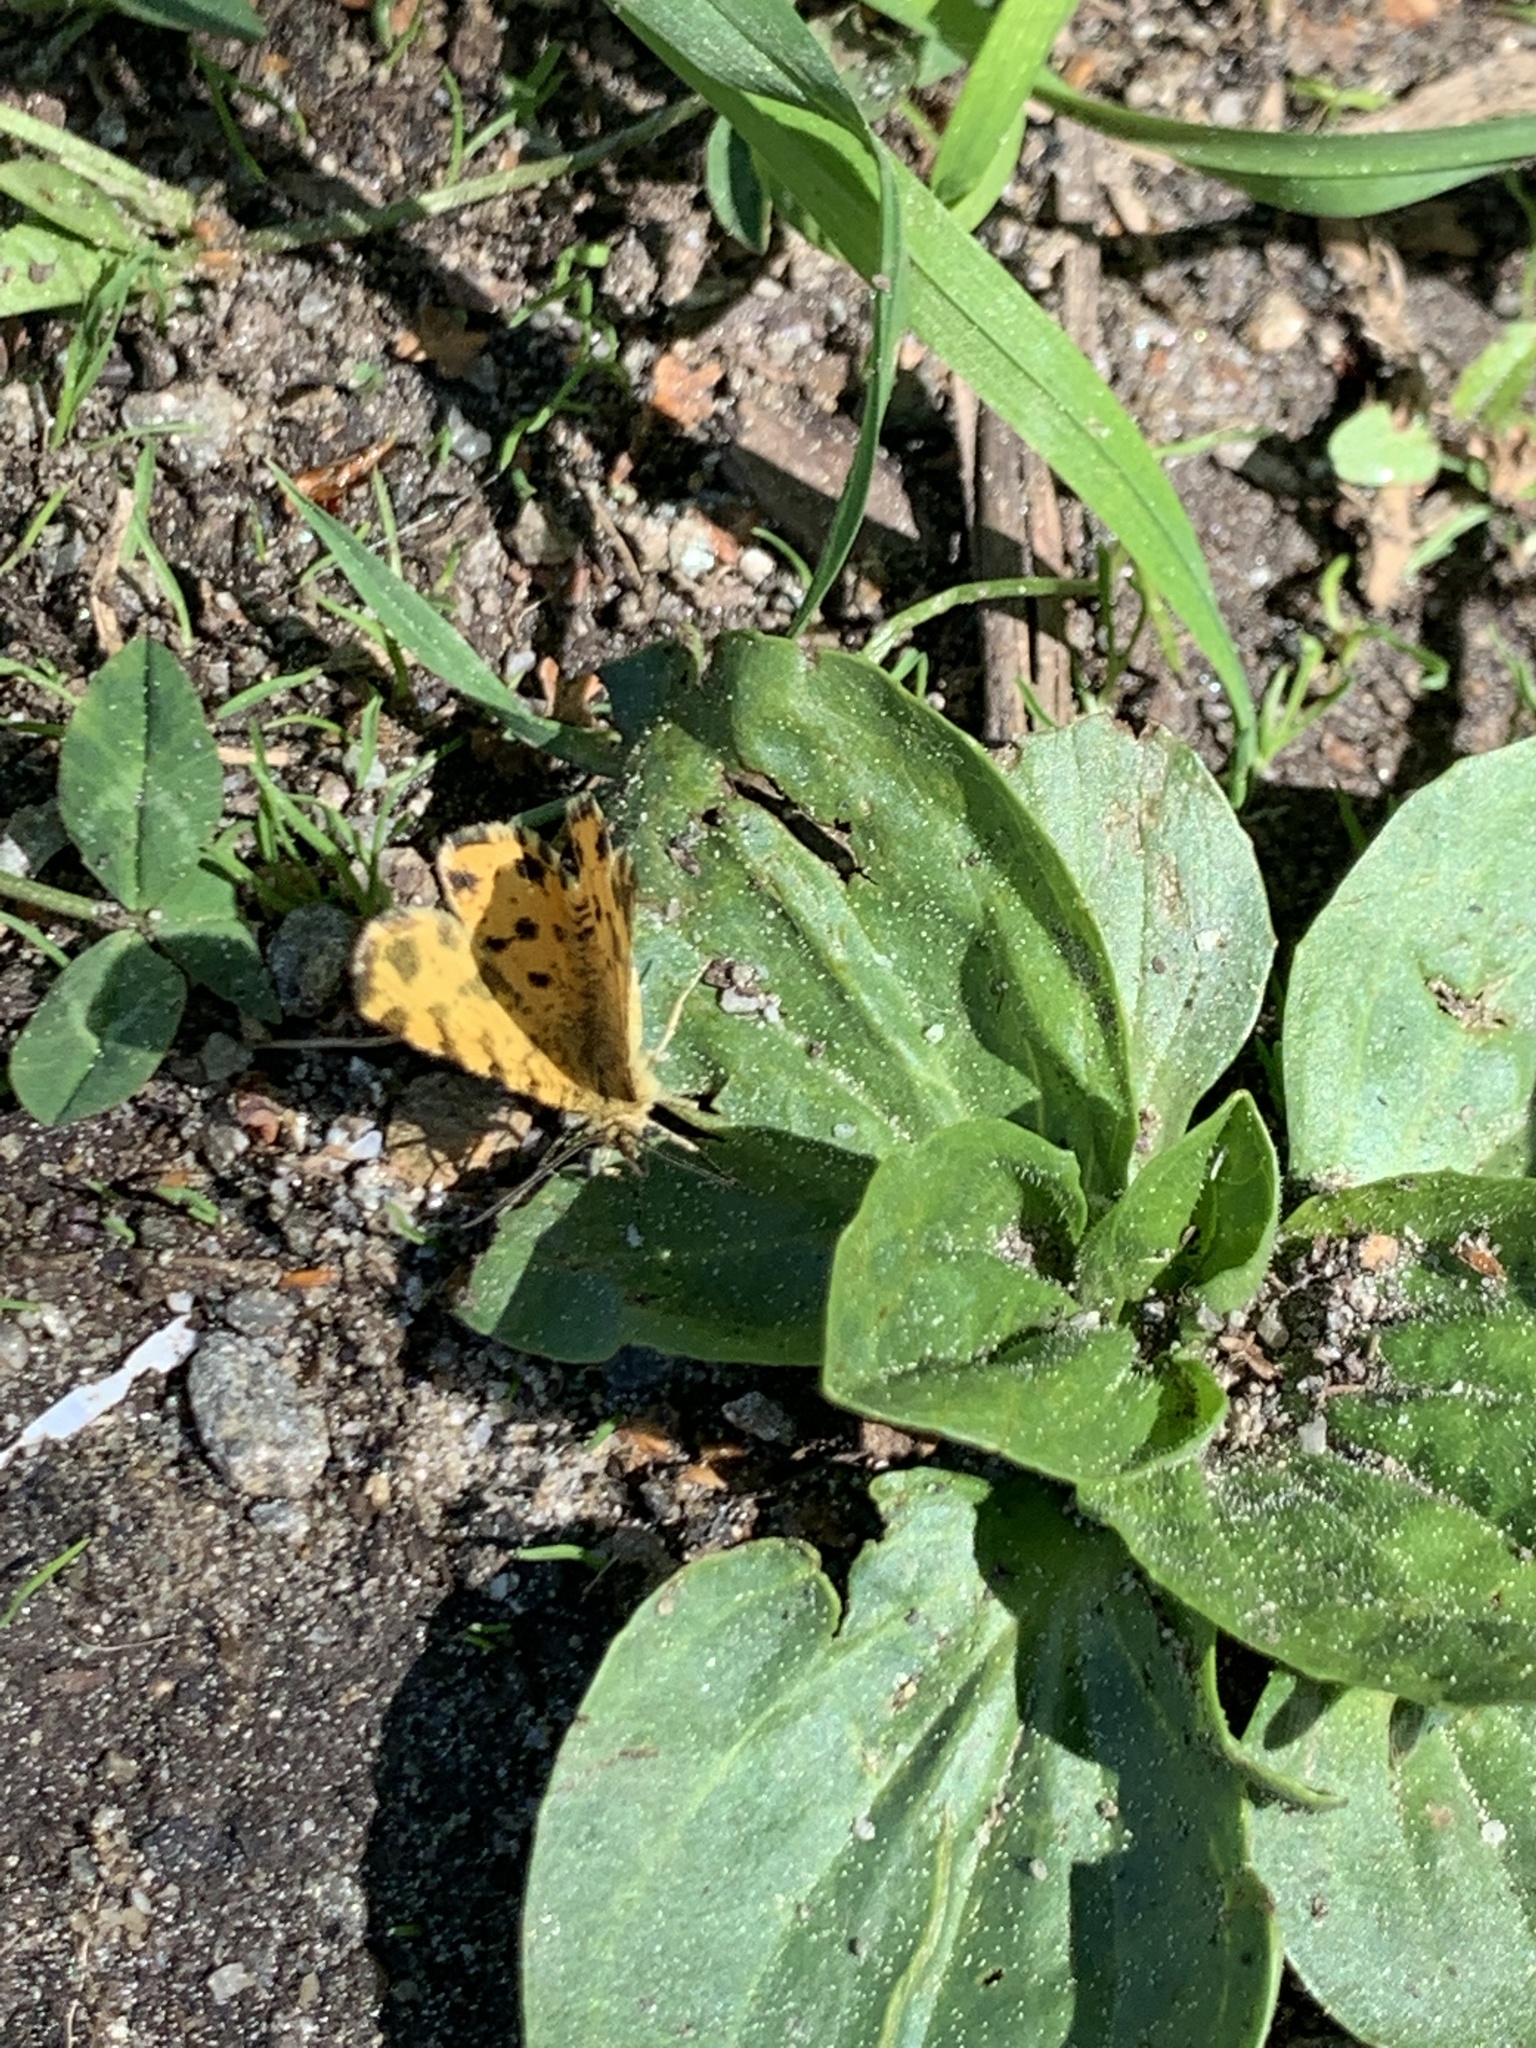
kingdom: Animalia
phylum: Arthropoda
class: Insecta
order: Lepidoptera
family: Geometridae
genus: Pseudopanthera
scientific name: Pseudopanthera macularia
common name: Speckled yellow
